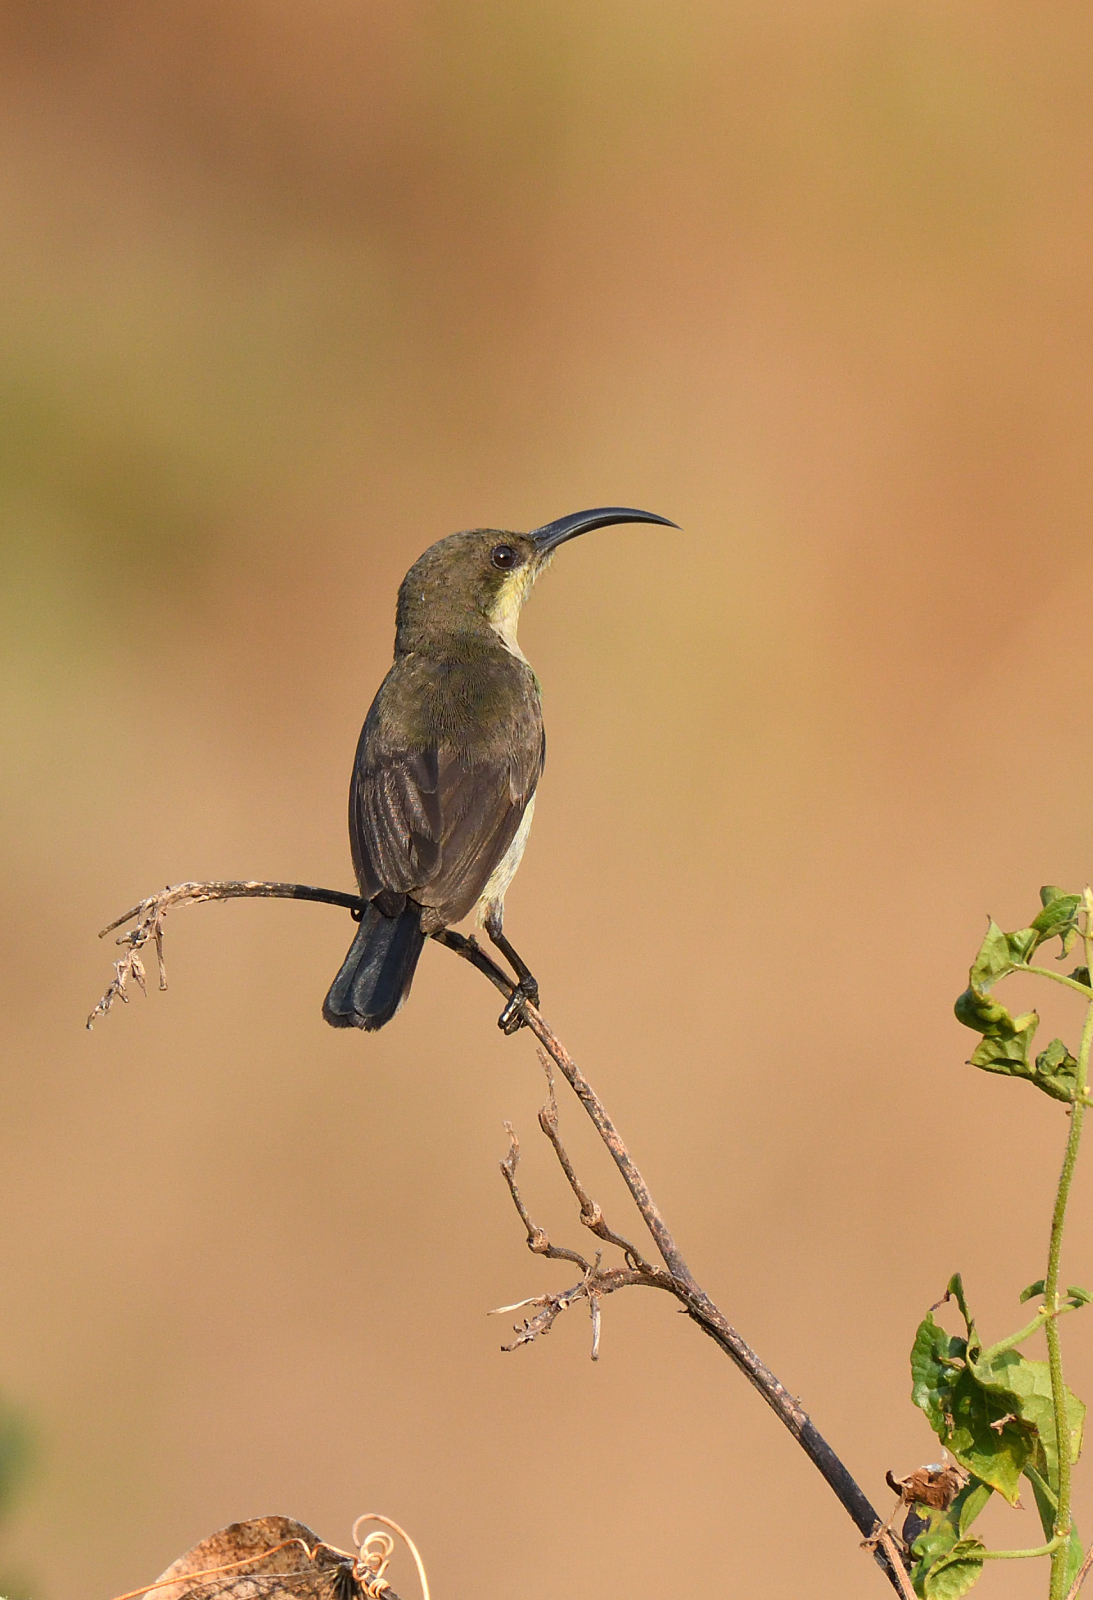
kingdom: Animalia
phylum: Chordata
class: Aves
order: Passeriformes
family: Nectariniidae
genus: Cinnyris
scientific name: Cinnyris lotenius
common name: Loten's sunbird
